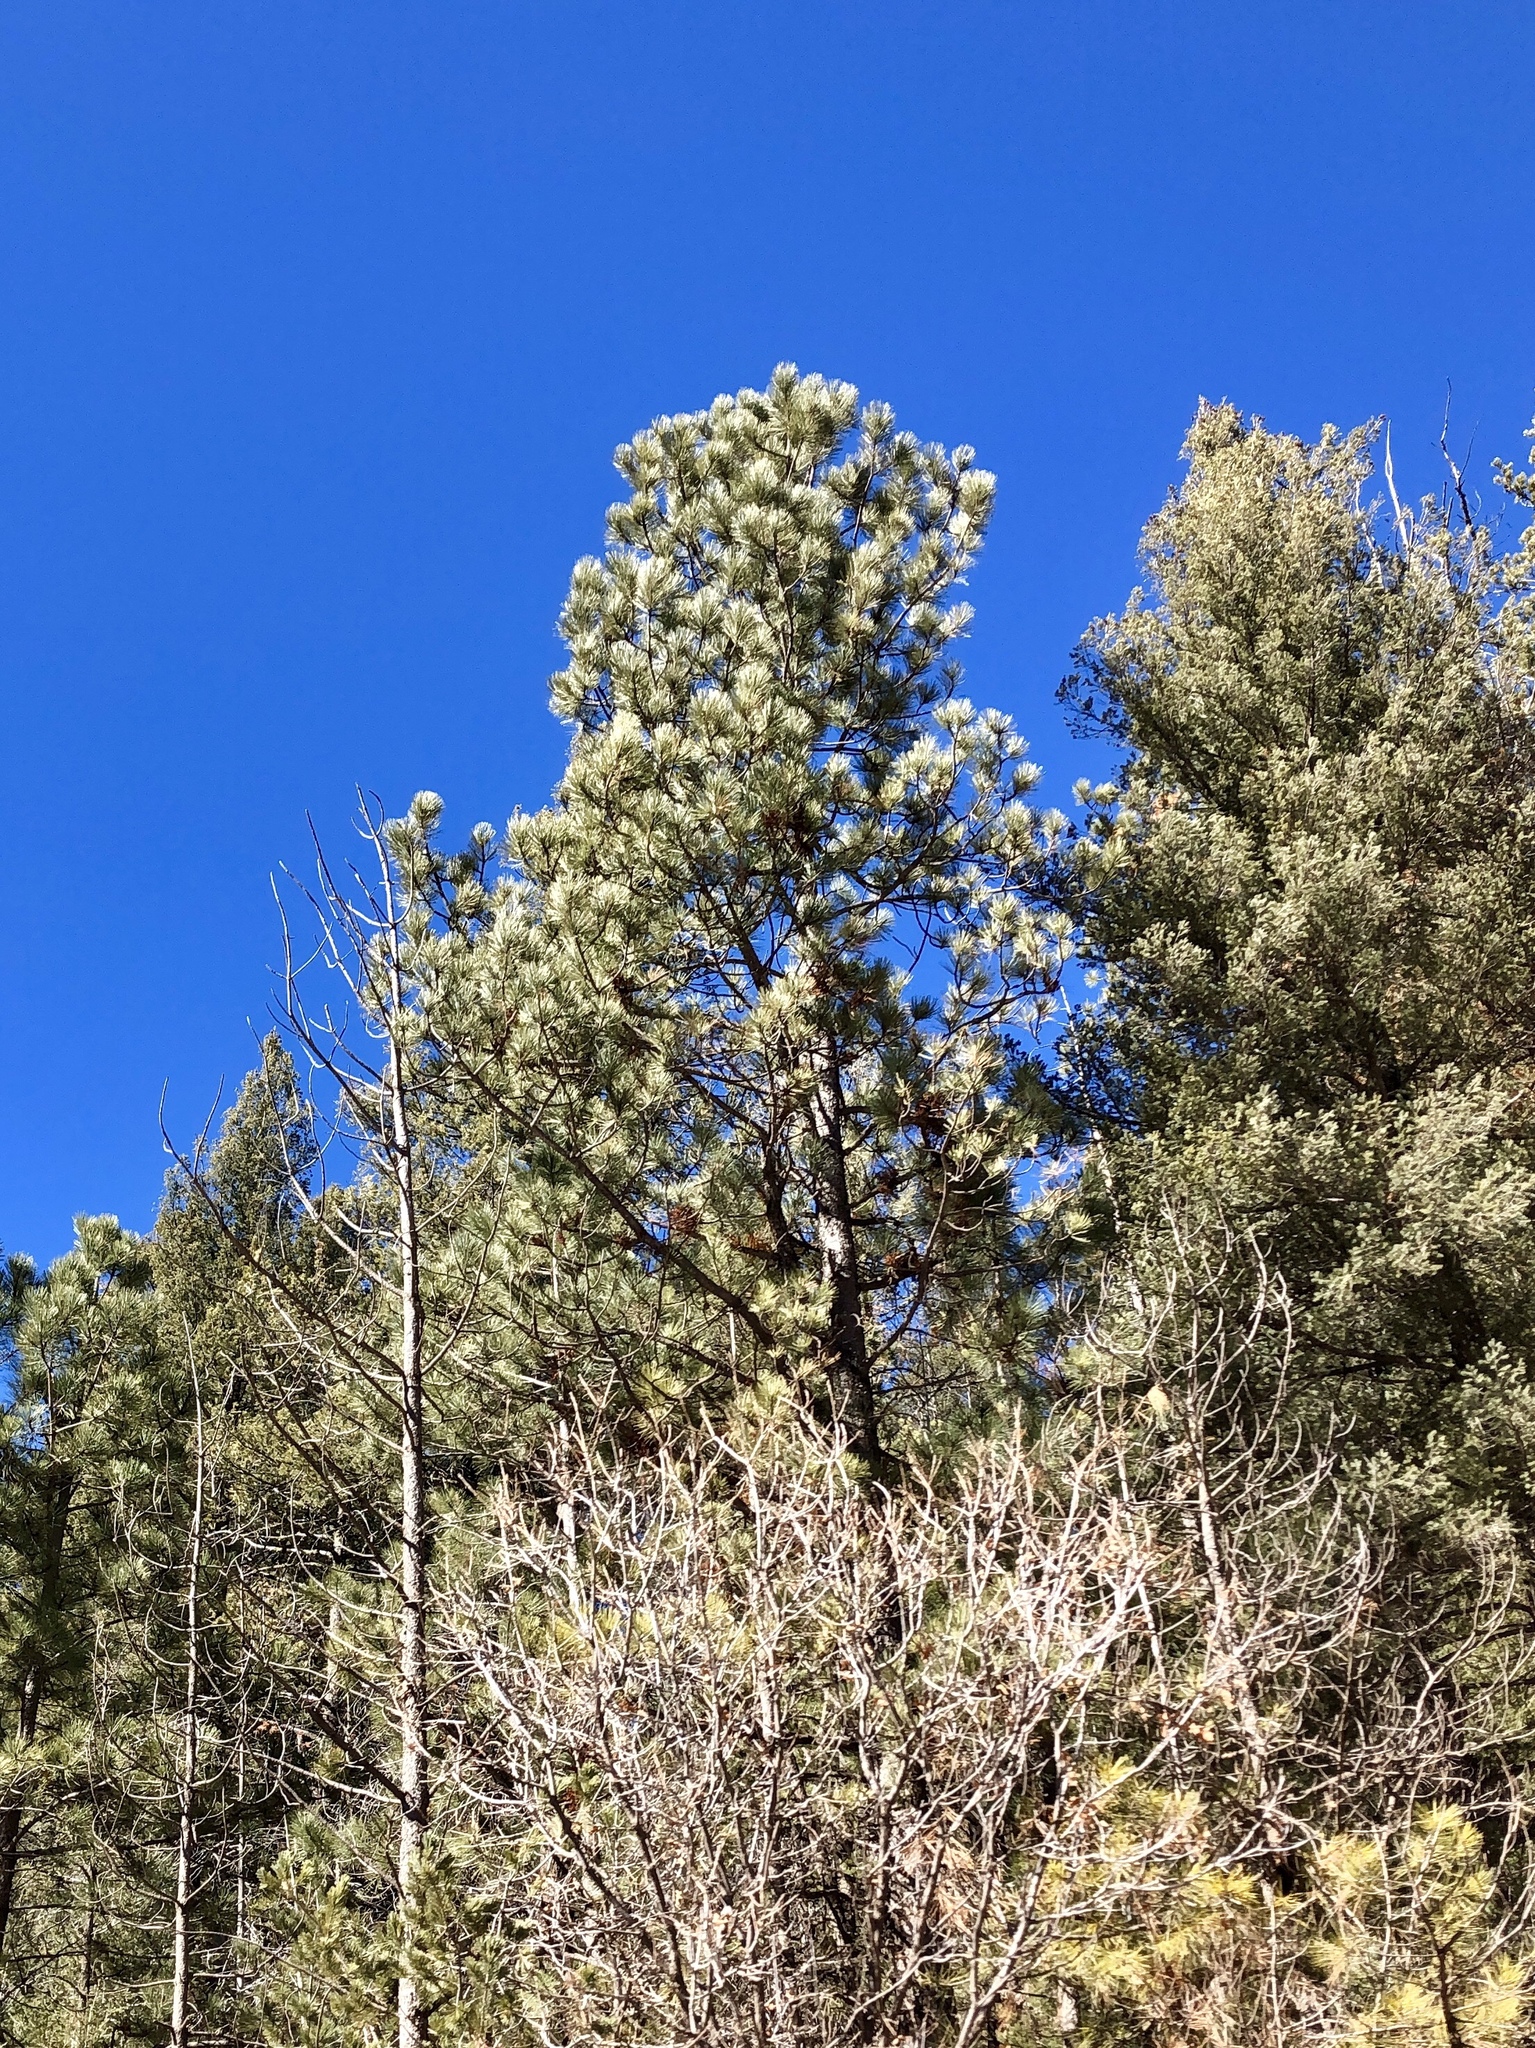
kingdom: Plantae
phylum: Tracheophyta
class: Pinopsida
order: Pinales
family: Pinaceae
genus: Pinus
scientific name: Pinus ponderosa
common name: Western yellow-pine
